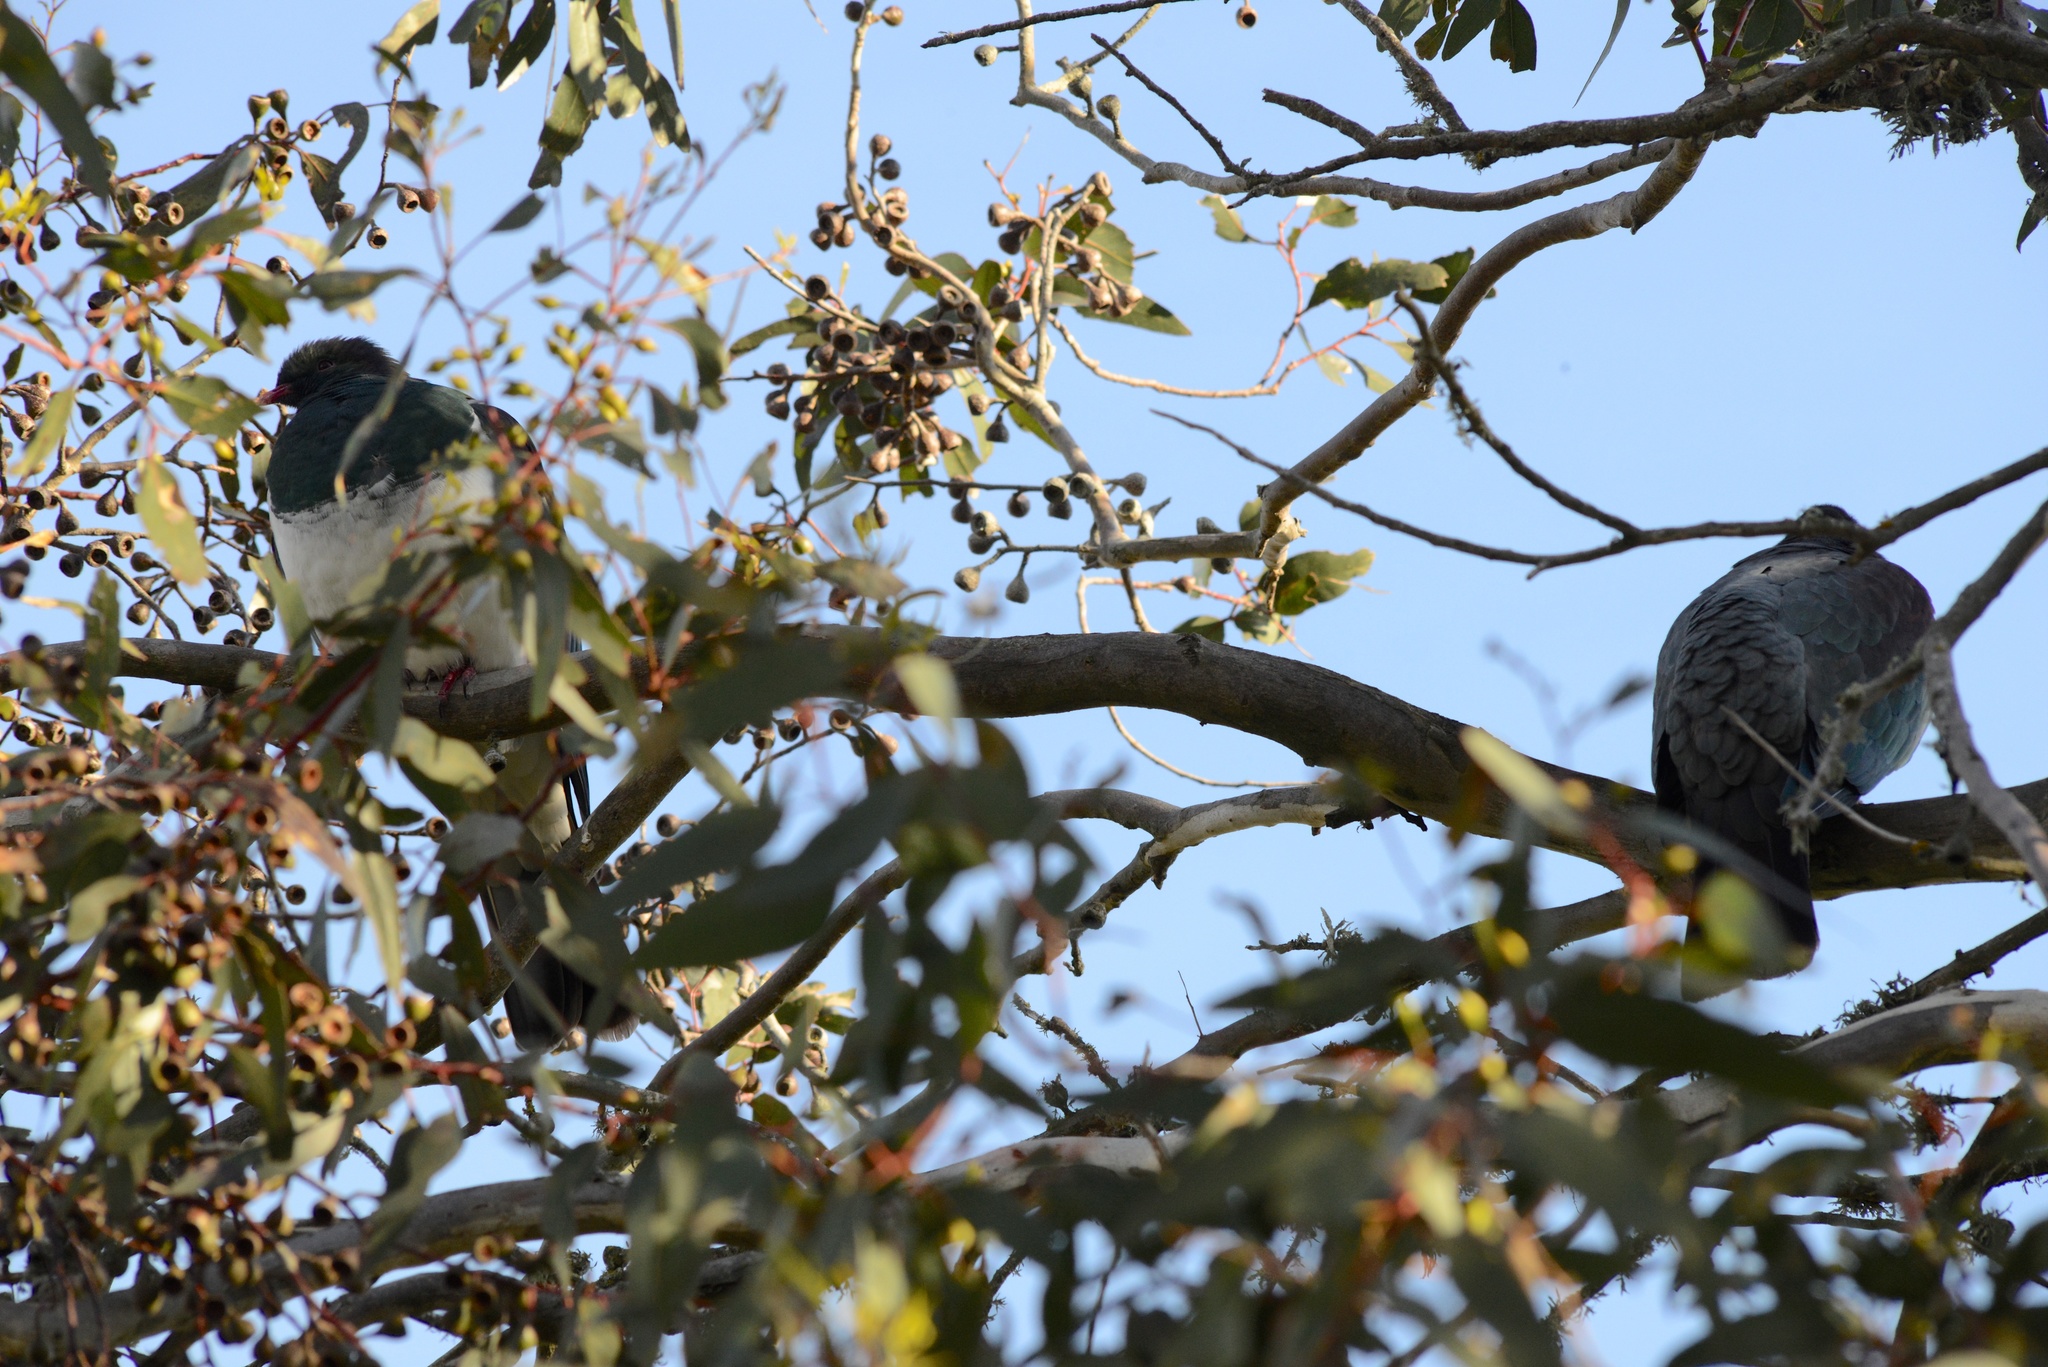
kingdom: Animalia
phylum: Chordata
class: Aves
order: Columbiformes
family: Columbidae
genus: Hemiphaga
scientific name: Hemiphaga novaeseelandiae
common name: New zealand pigeon
